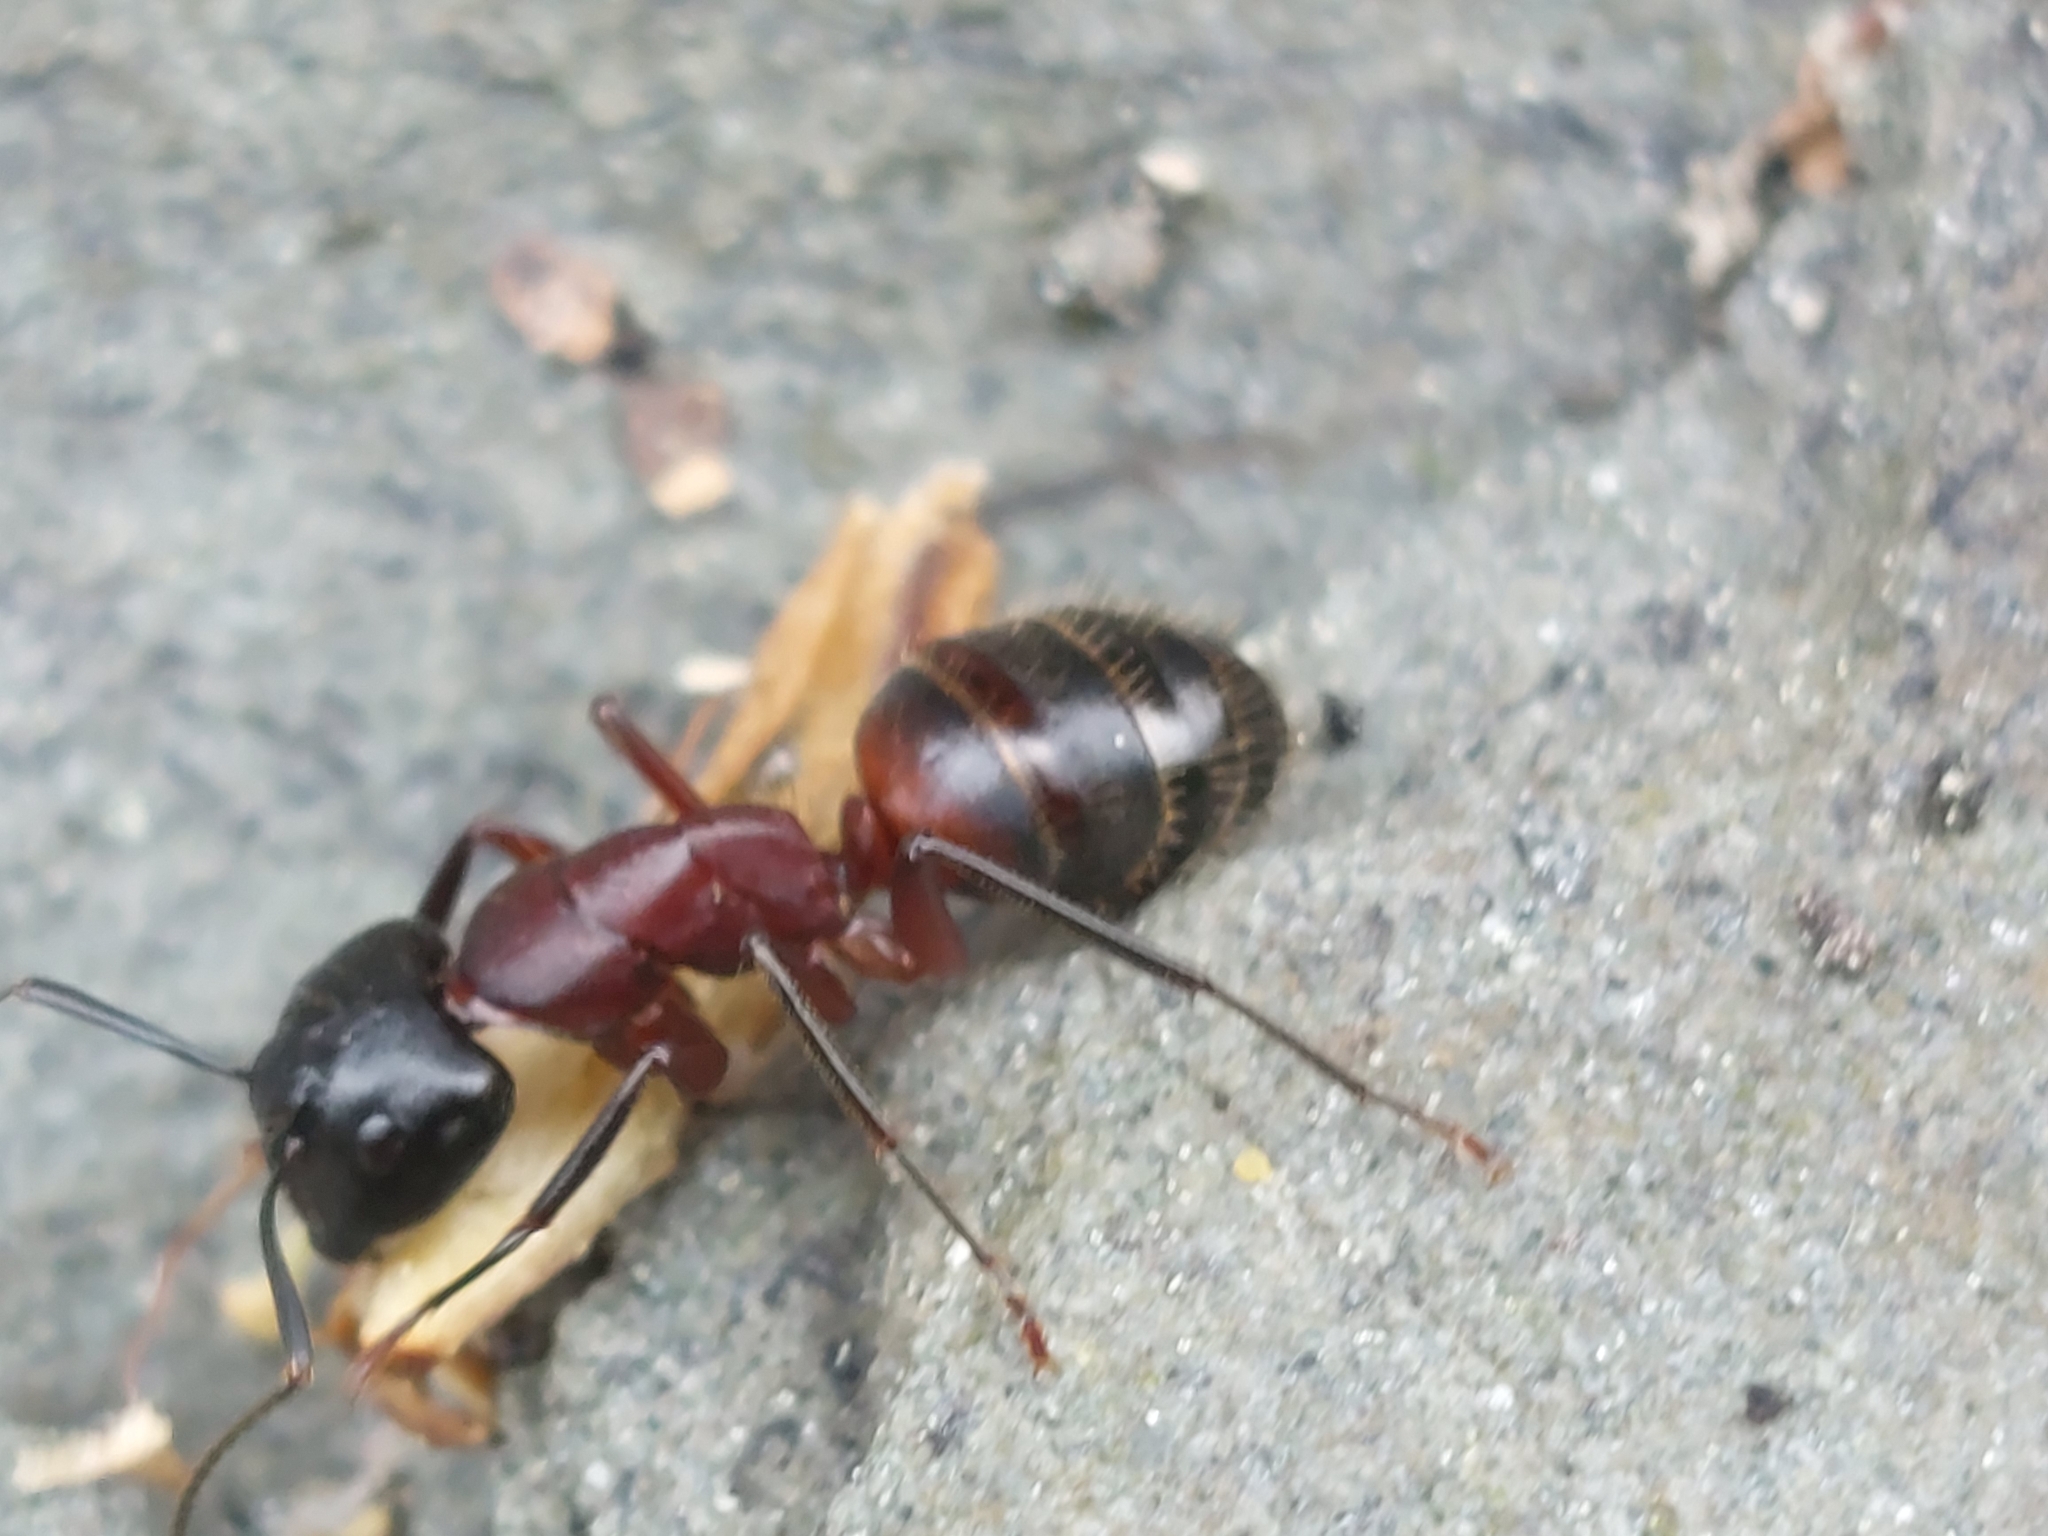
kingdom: Animalia
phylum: Arthropoda
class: Insecta
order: Hymenoptera
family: Formicidae
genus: Camponotus
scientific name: Camponotus ligniperdus
